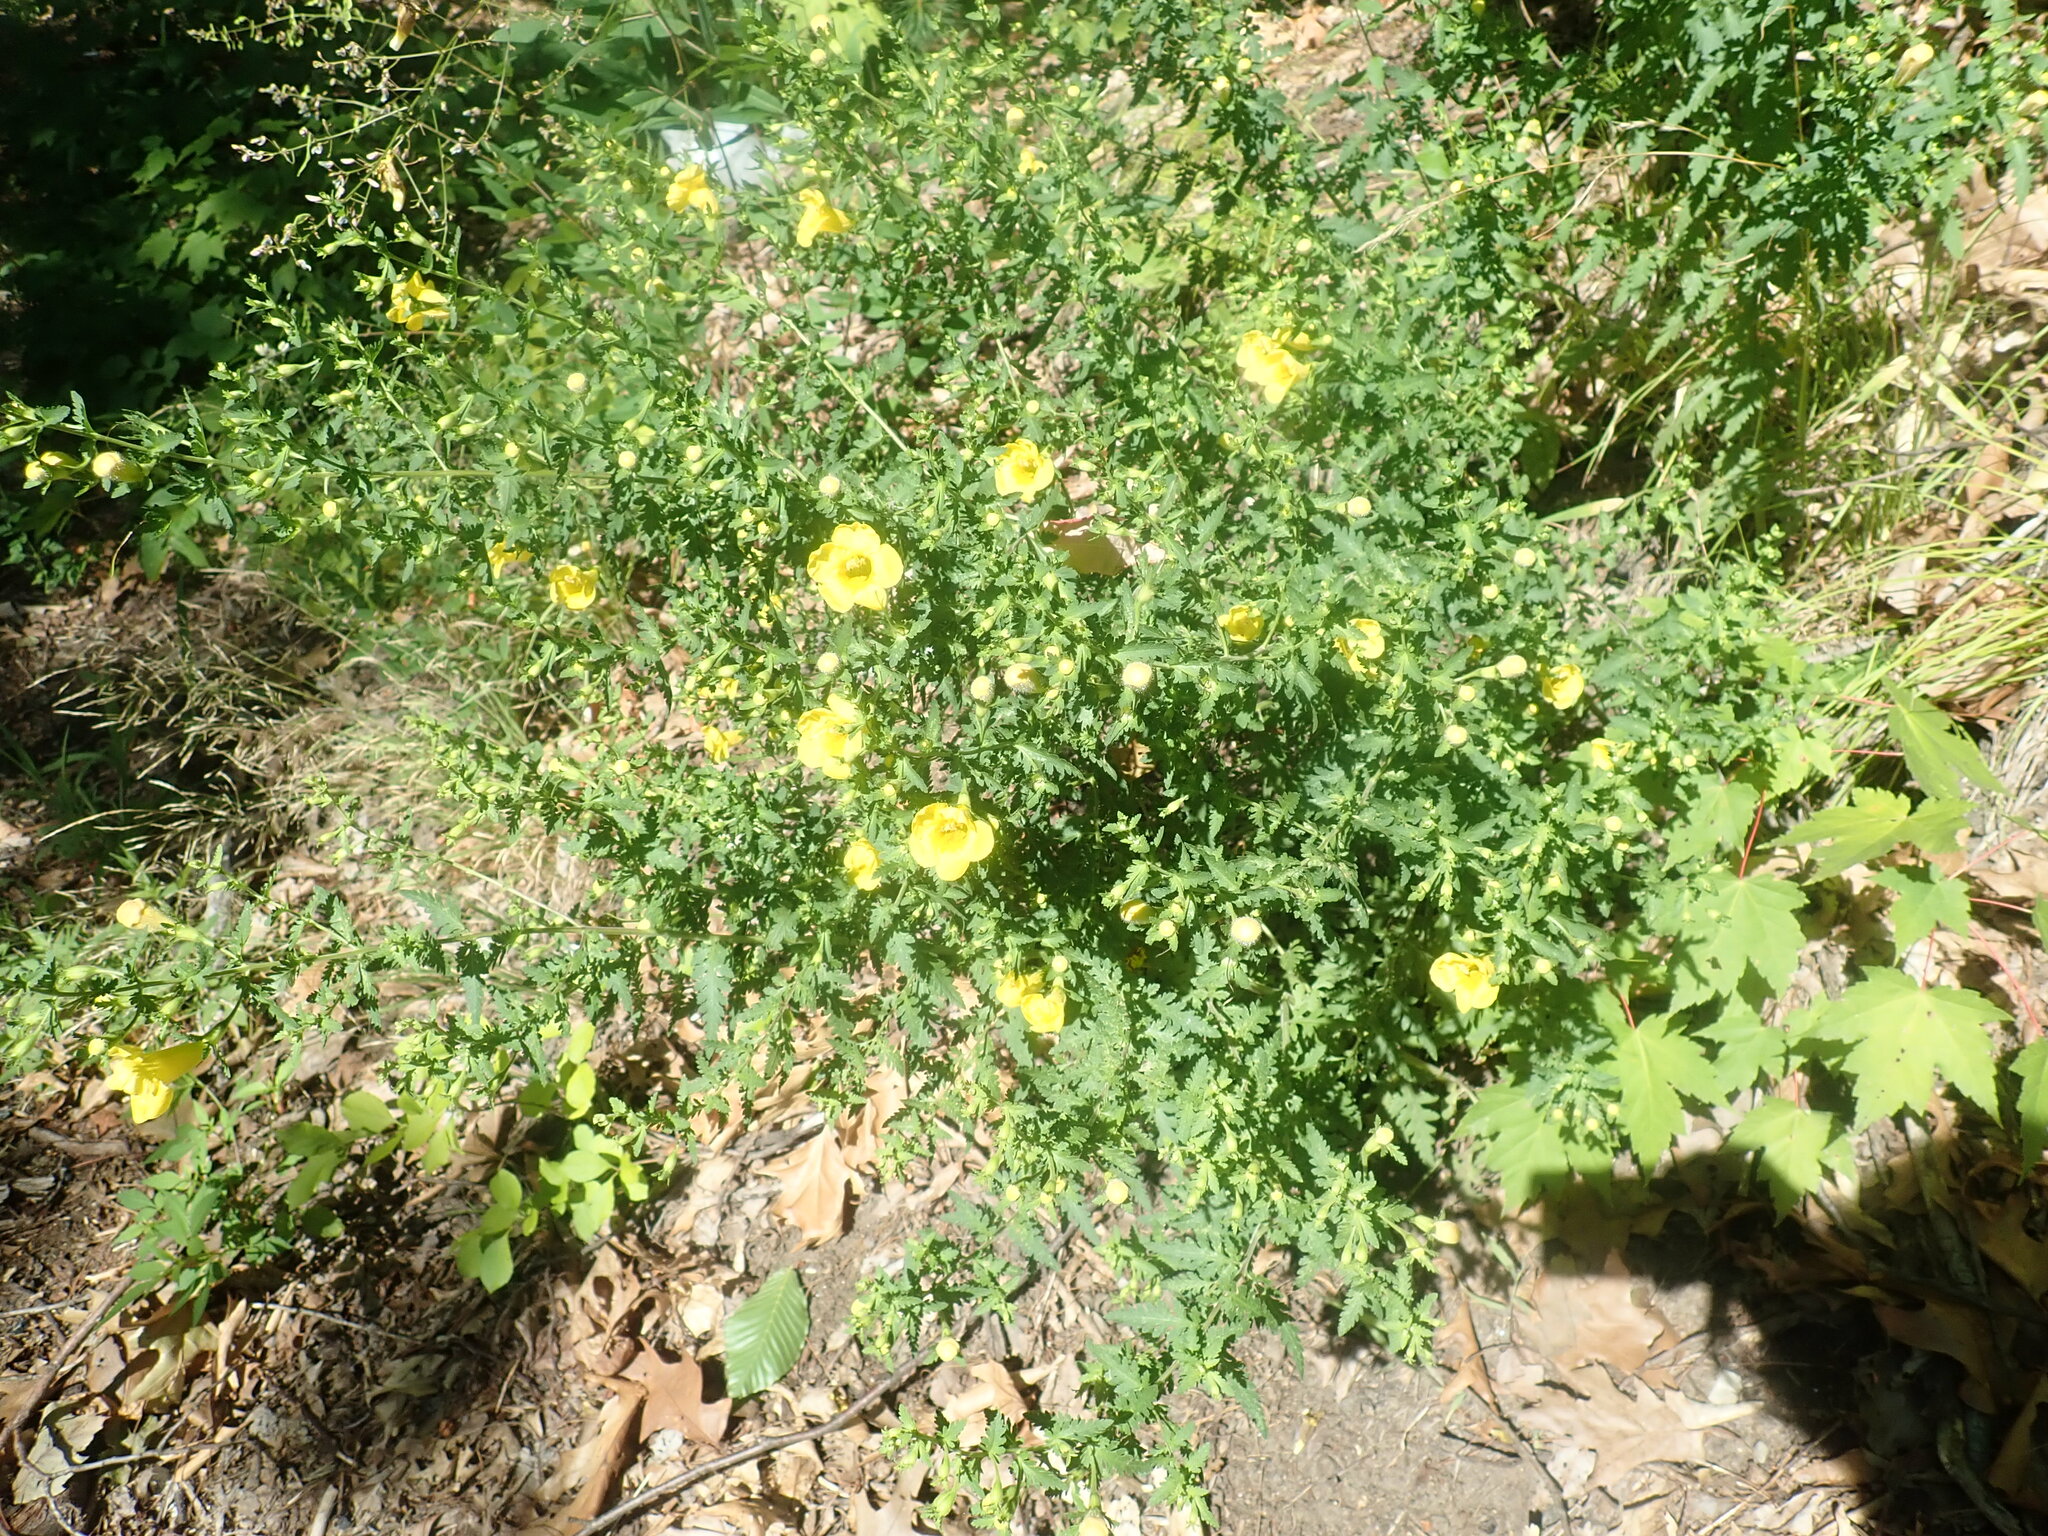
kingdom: Plantae
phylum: Tracheophyta
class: Magnoliopsida
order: Lamiales
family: Orobanchaceae
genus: Aureolaria
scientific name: Aureolaria pedicularia
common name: Annual false foxglove
